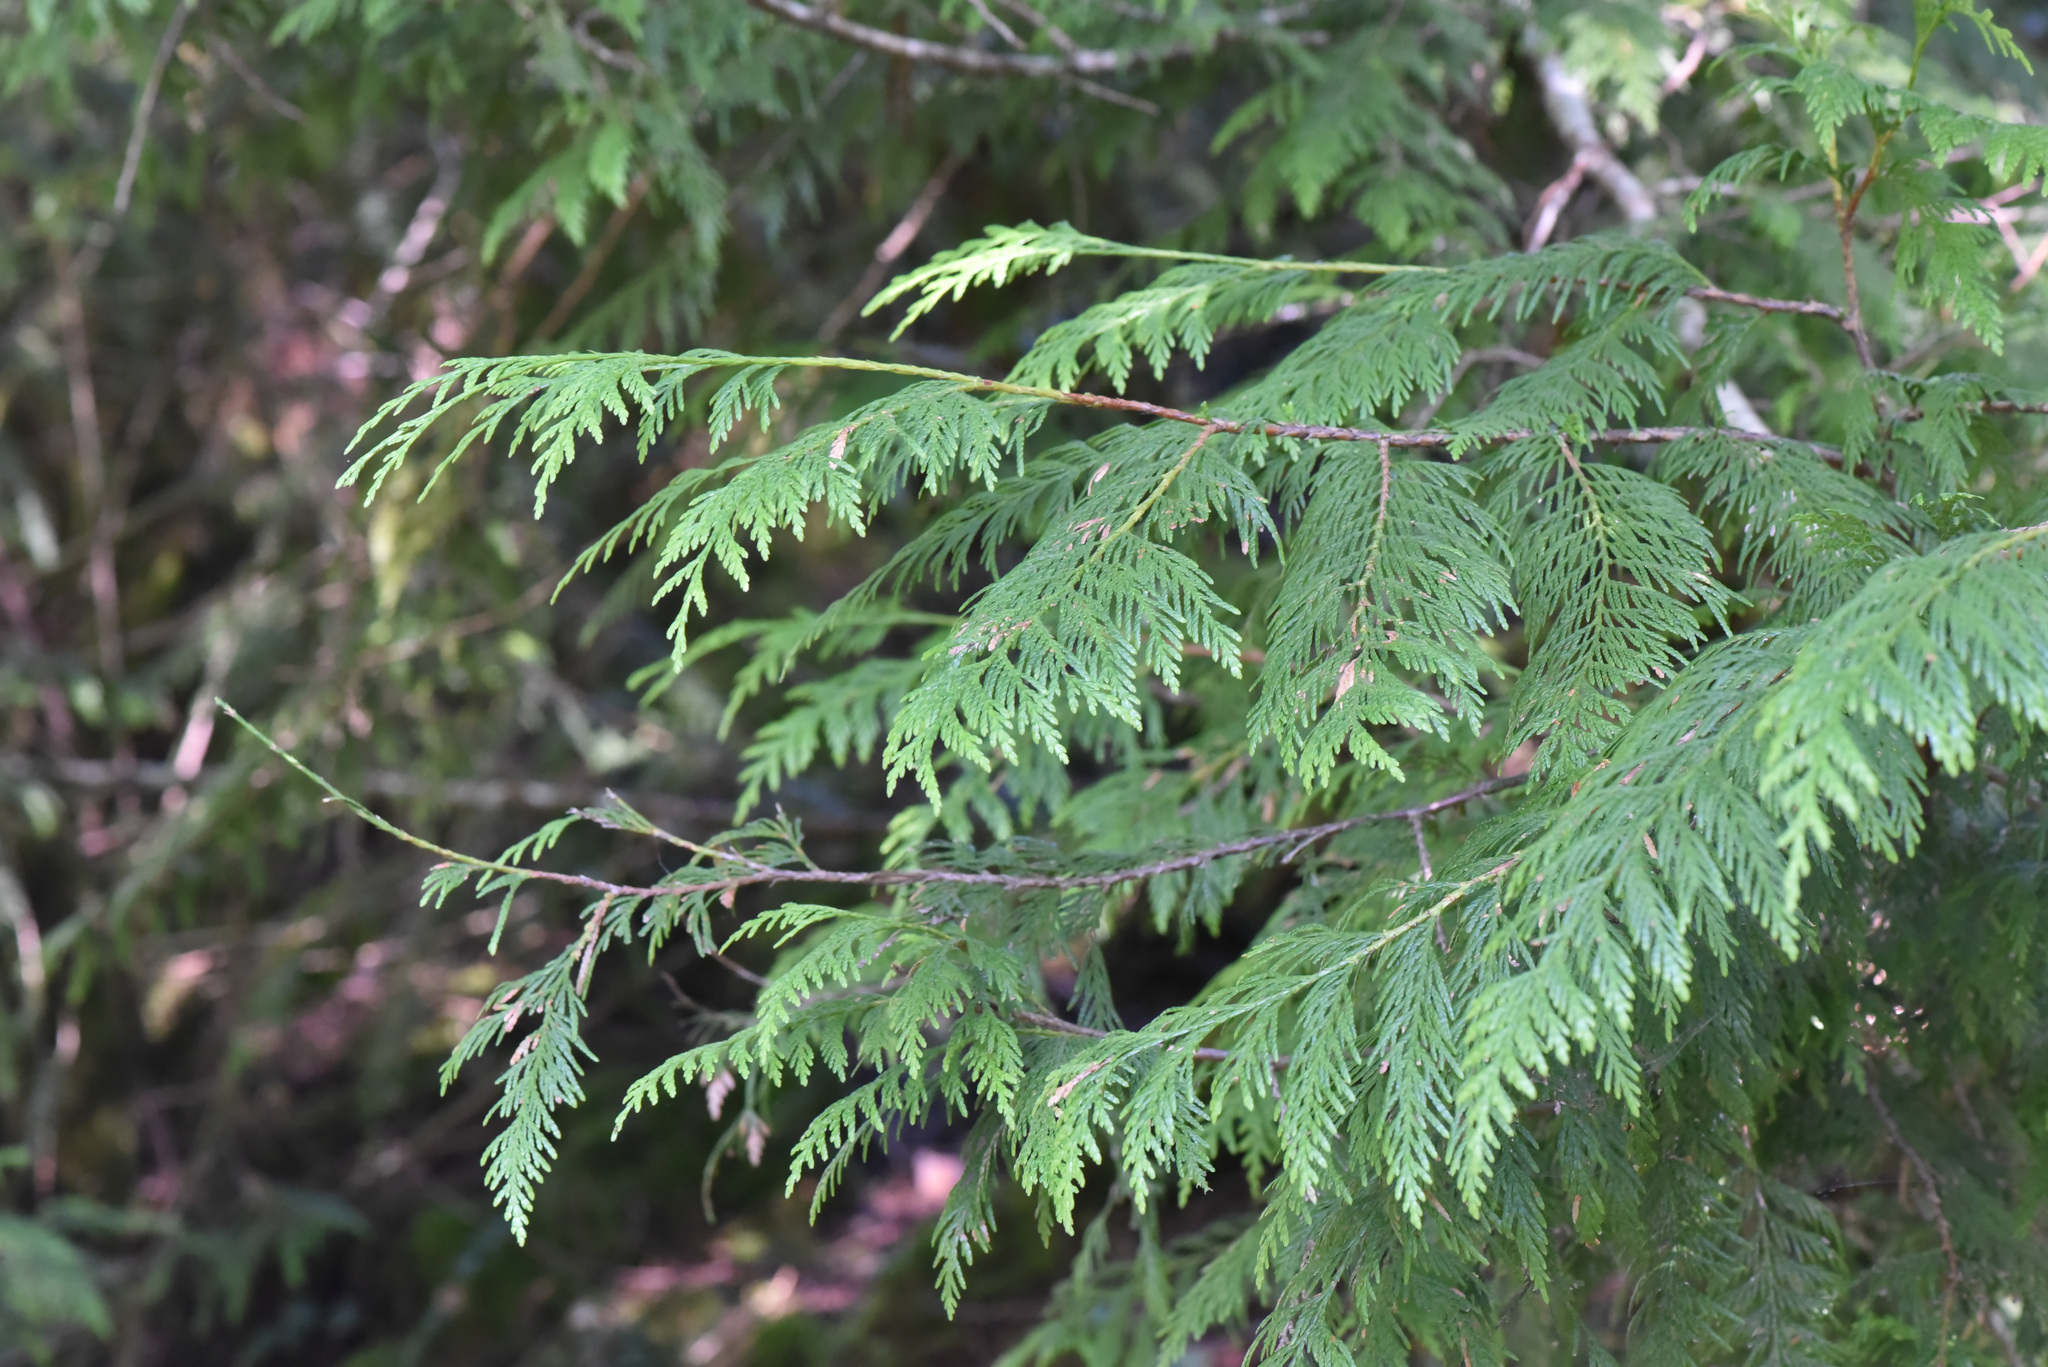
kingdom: Plantae
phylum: Tracheophyta
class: Pinopsida
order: Pinales
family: Cupressaceae
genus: Thuja
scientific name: Thuja plicata
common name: Western red-cedar
